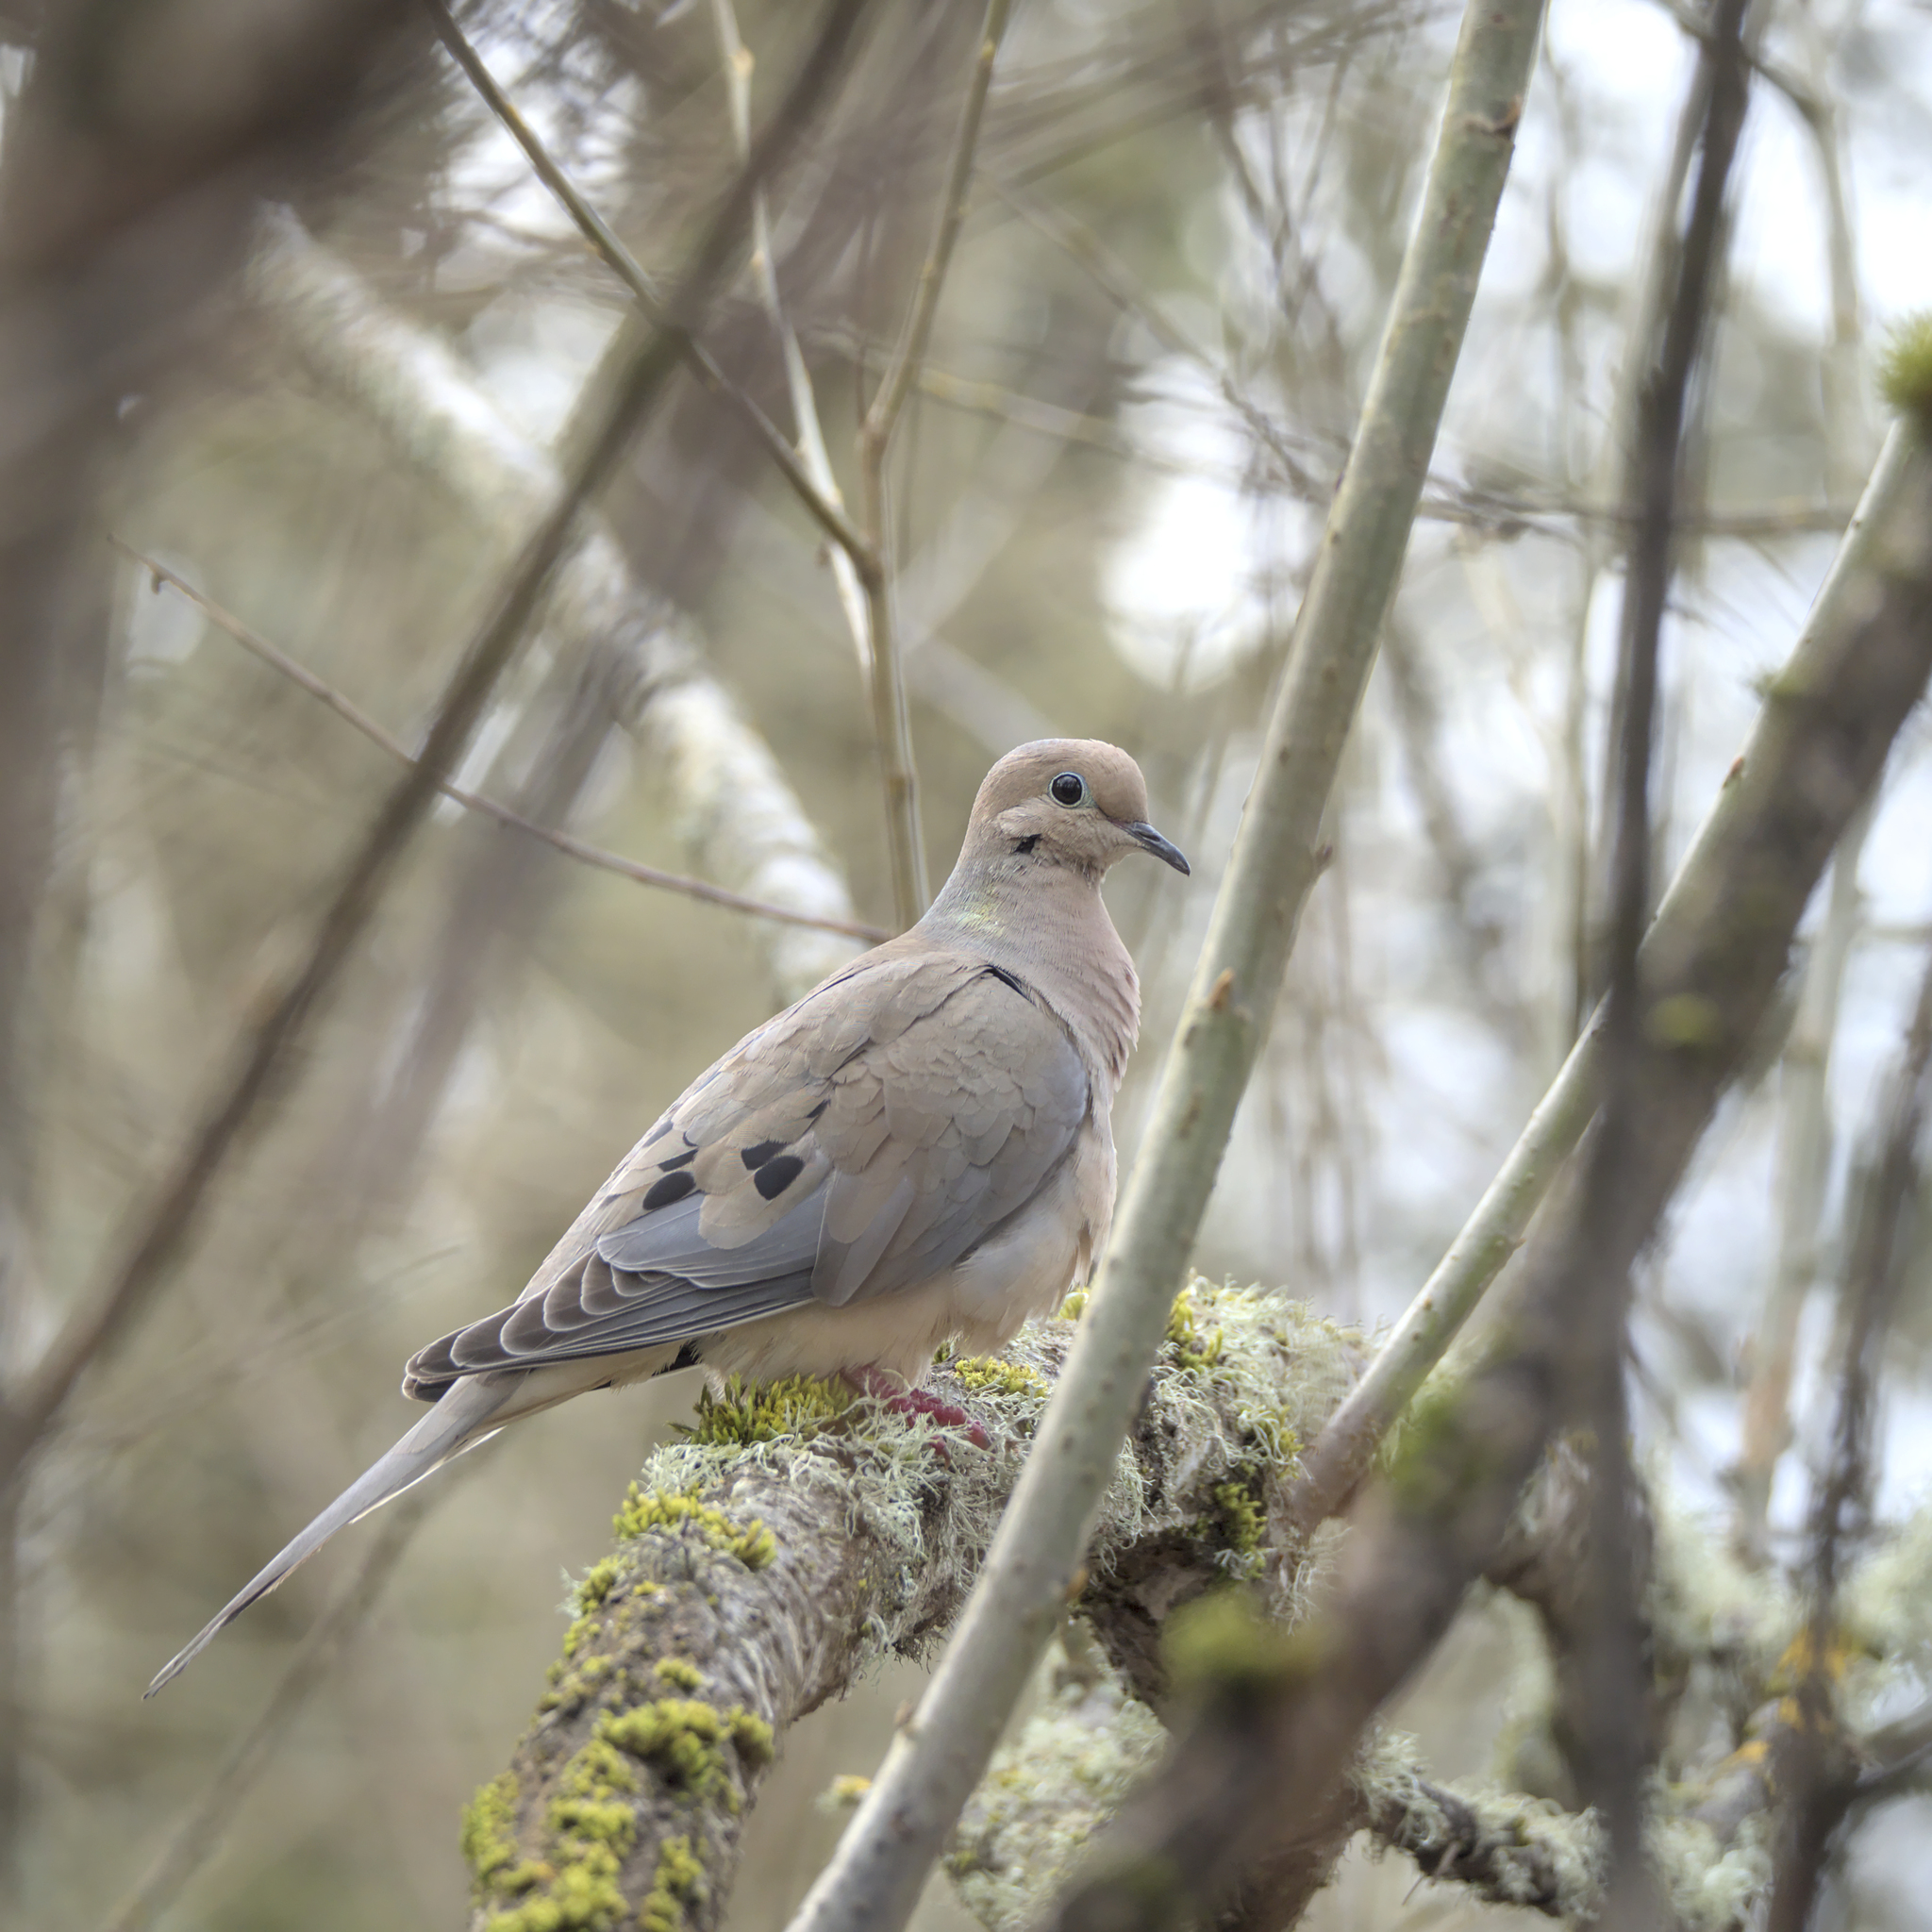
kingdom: Animalia
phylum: Chordata
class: Aves
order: Columbiformes
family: Columbidae
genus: Zenaida
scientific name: Zenaida macroura
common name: Mourning dove
